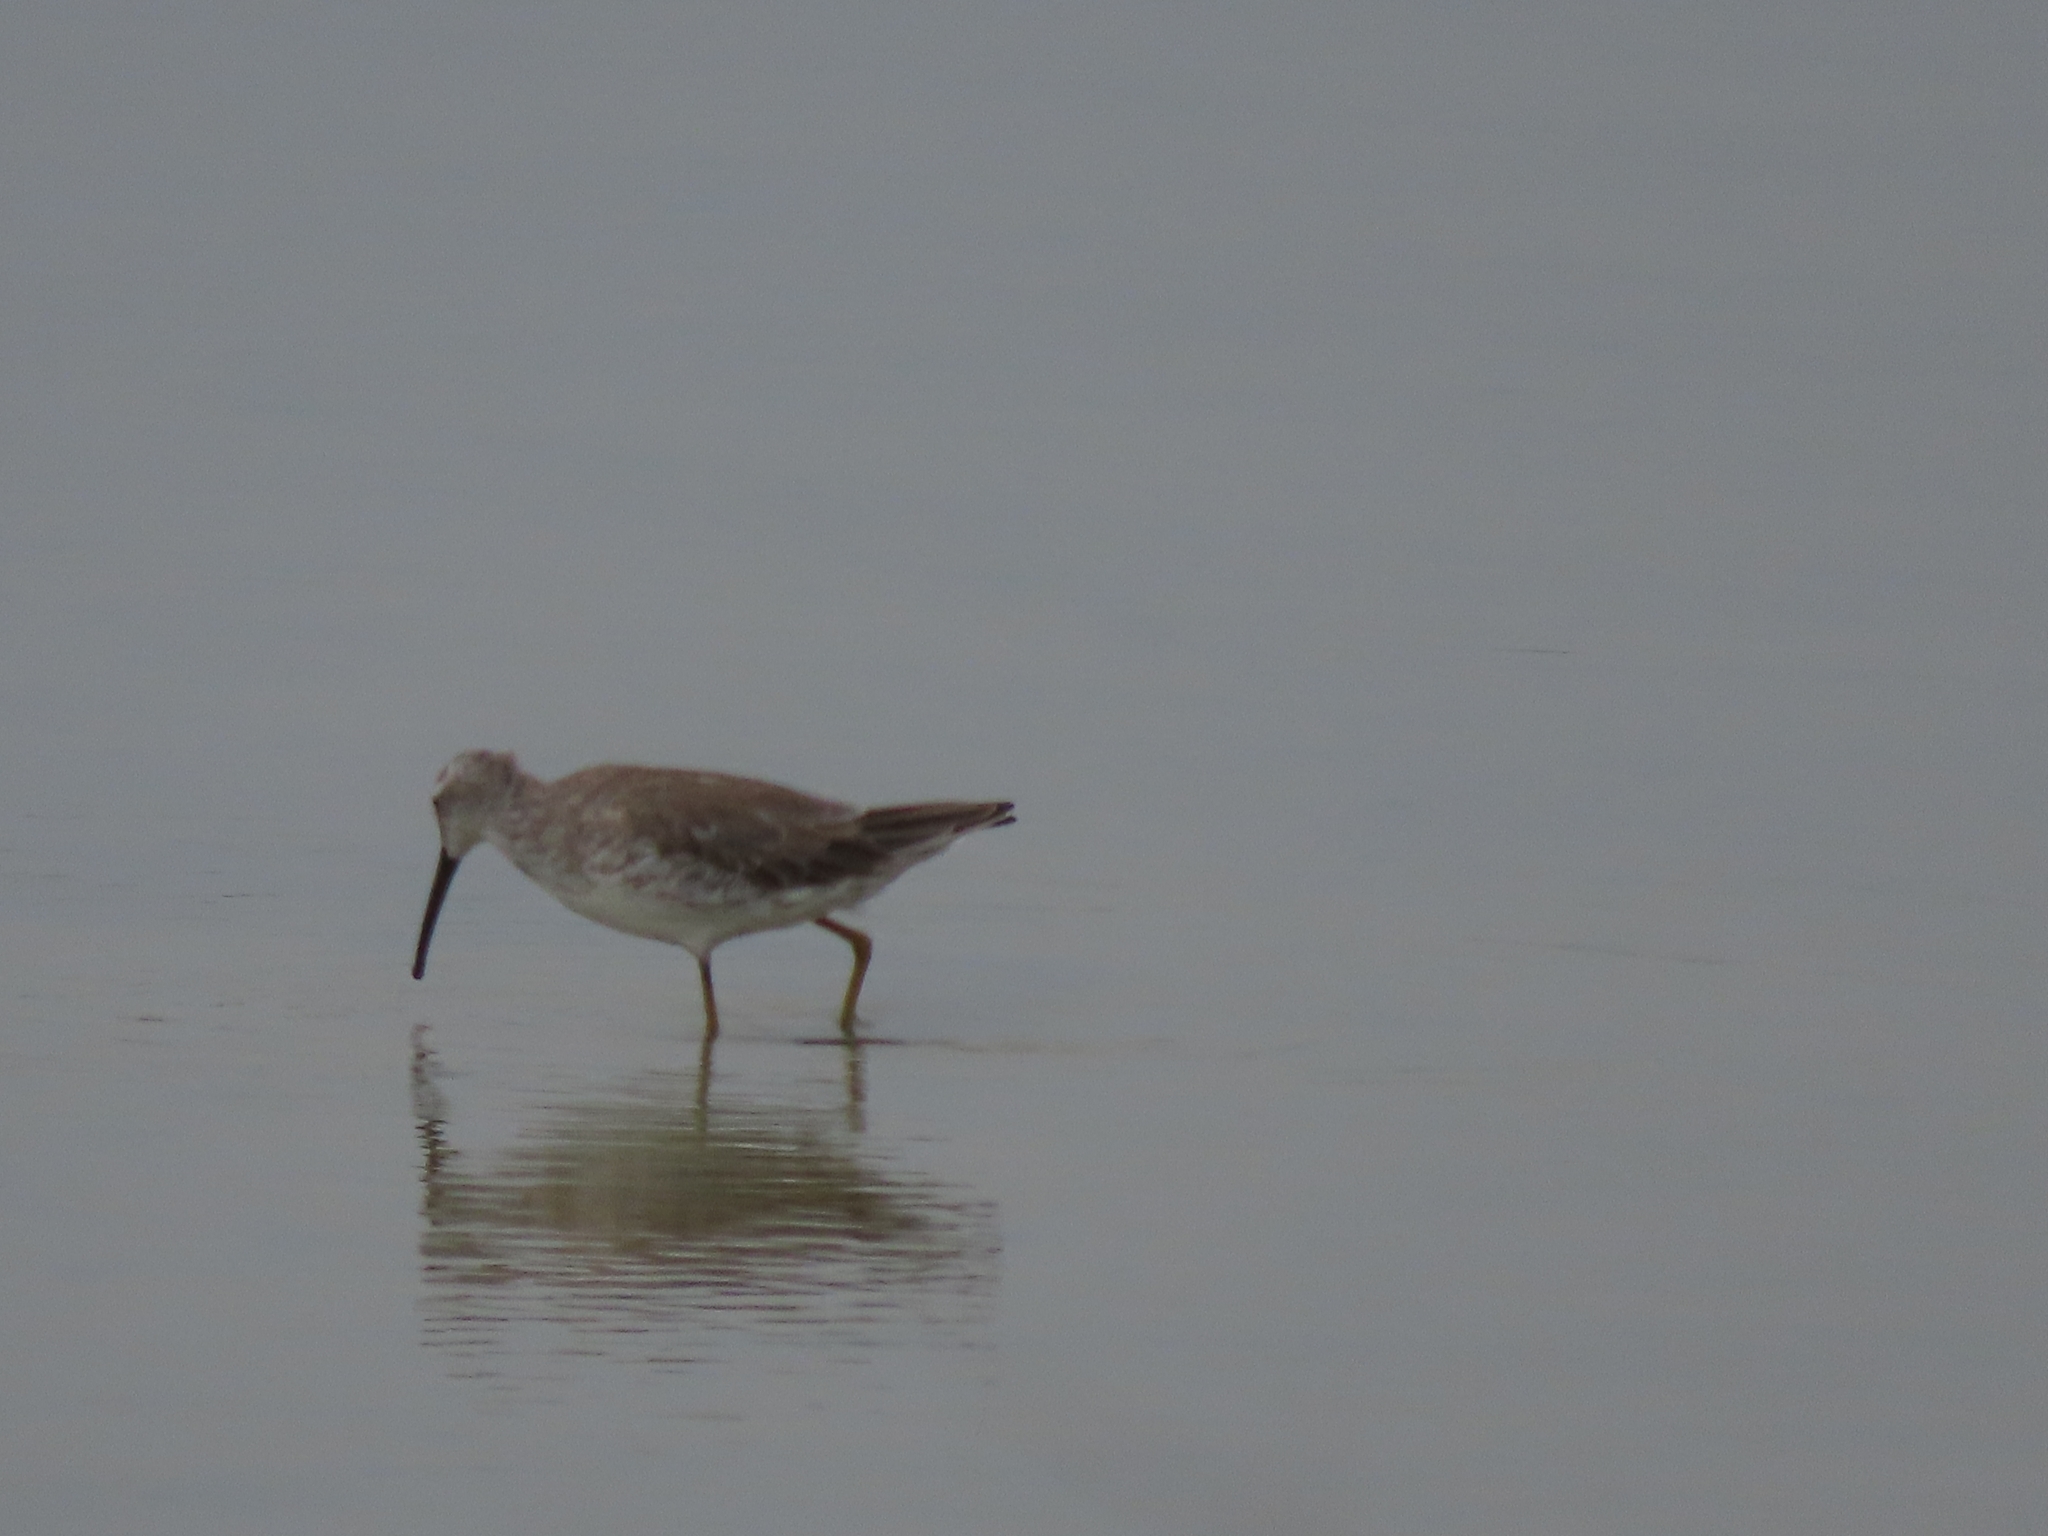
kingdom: Animalia
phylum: Chordata
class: Aves
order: Charadriiformes
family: Scolopacidae
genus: Calidris
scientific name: Calidris himantopus
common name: Stilt sandpiper
